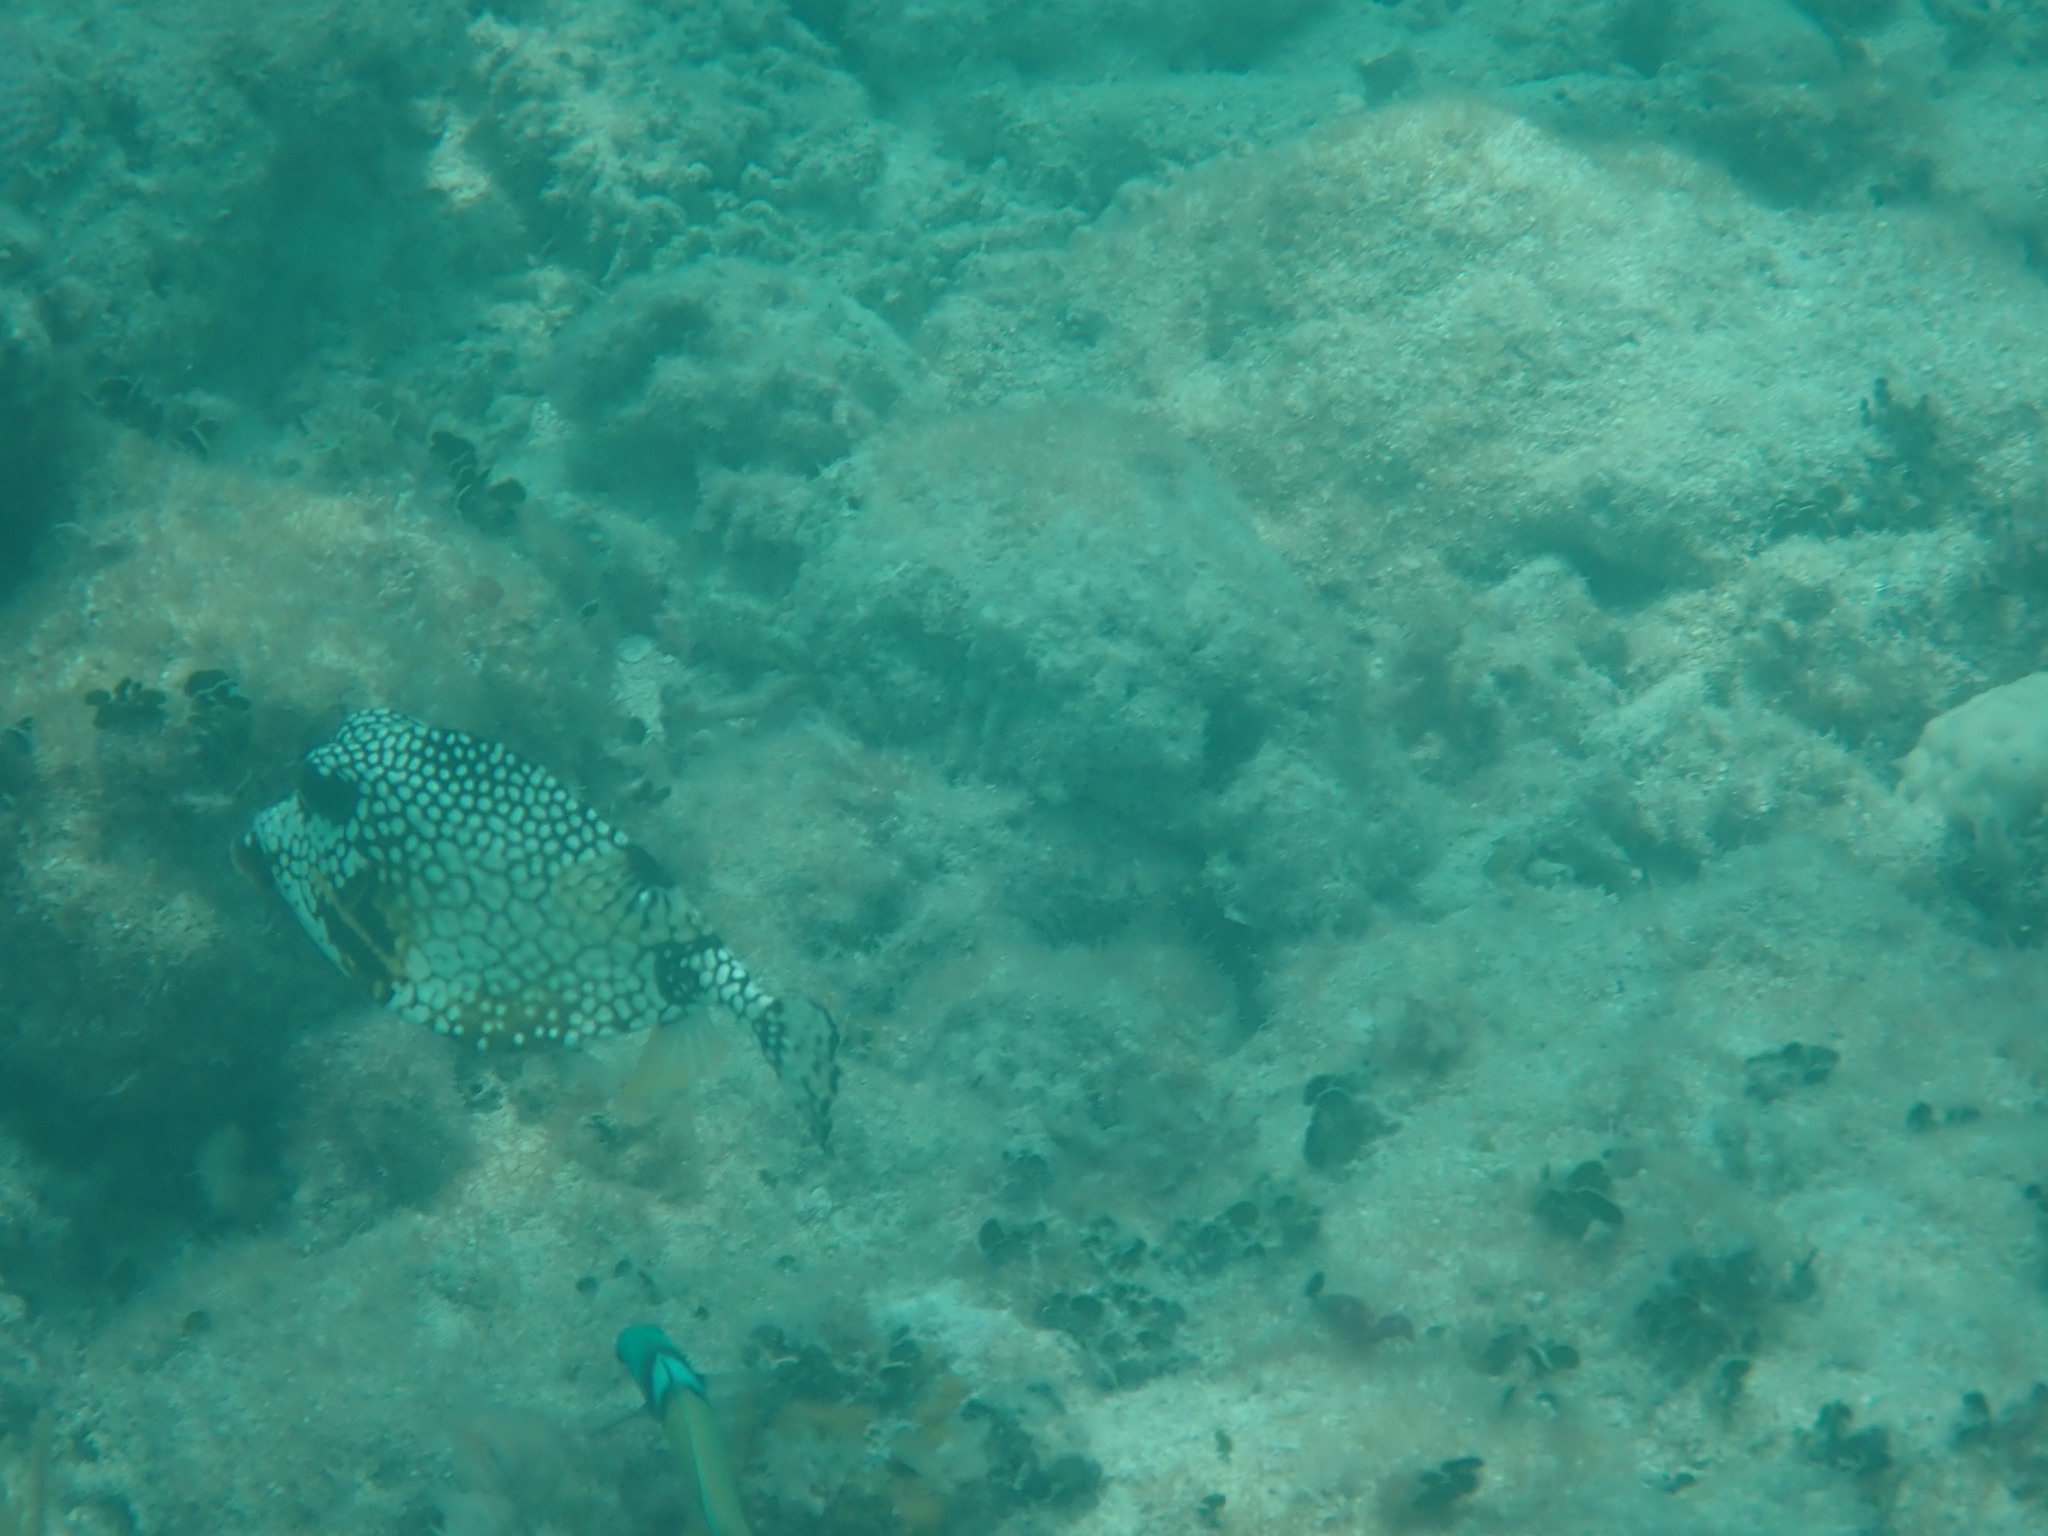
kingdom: Animalia
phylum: Chordata
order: Tetraodontiformes
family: Ostraciidae
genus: Lactophrys
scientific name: Lactophrys triqueter
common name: Smooth trunkfish
